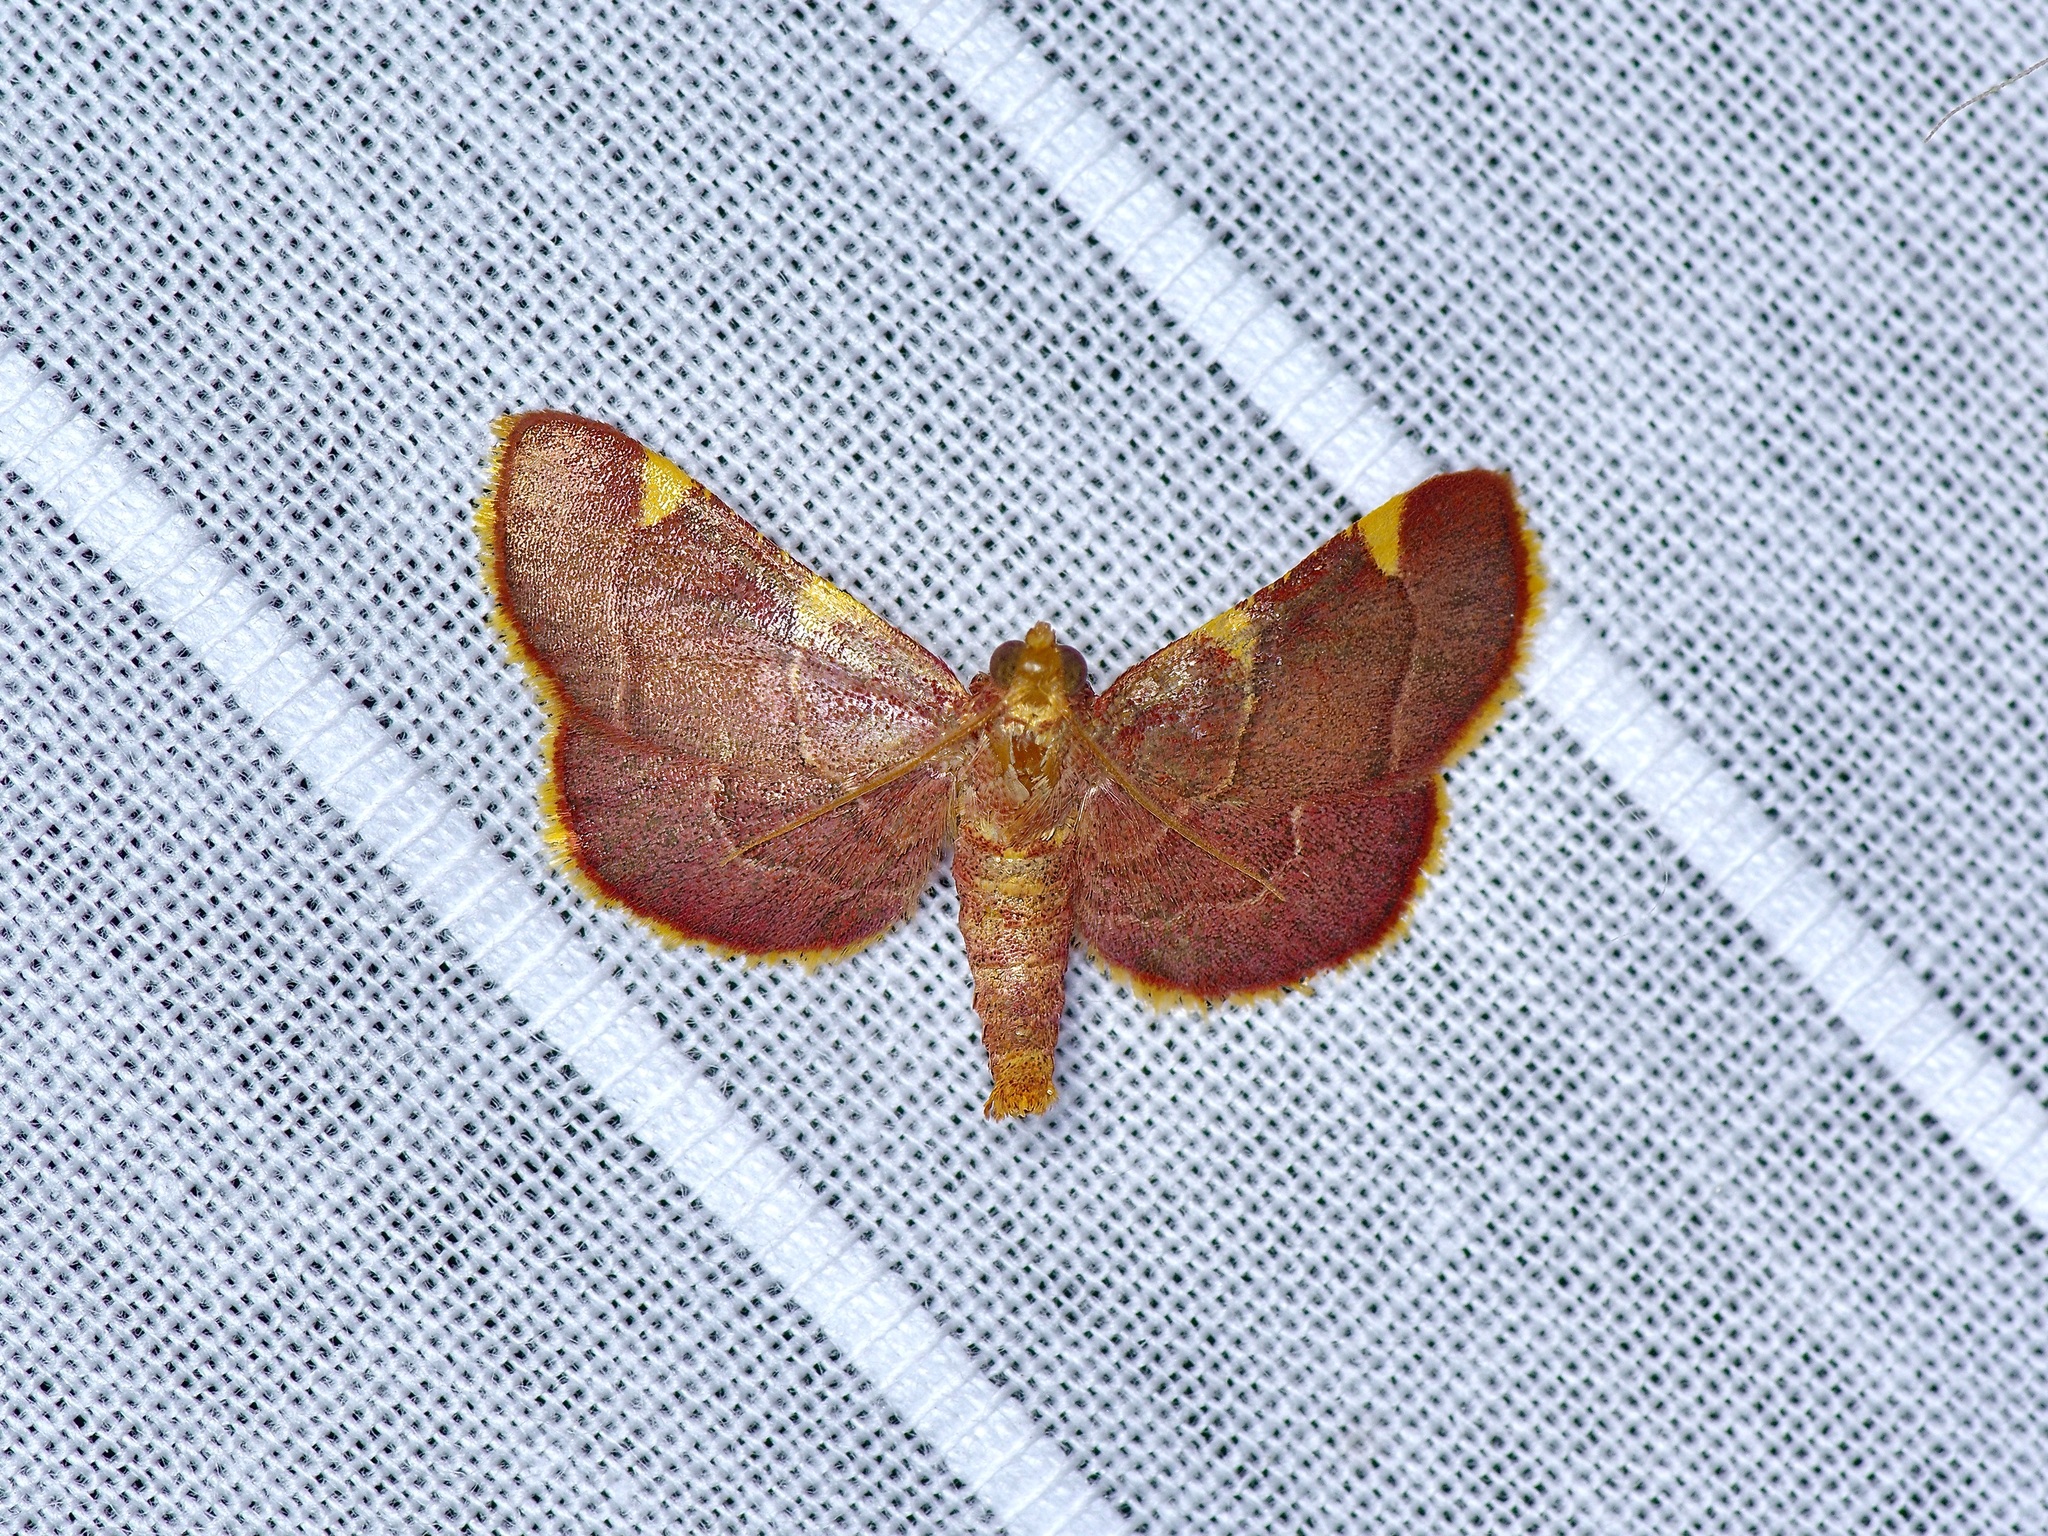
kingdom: Animalia
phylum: Arthropoda
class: Insecta
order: Lepidoptera
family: Pyralidae
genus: Hypsopygia
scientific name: Hypsopygia olinalis
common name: Yellow-fringed dolichomia moth
